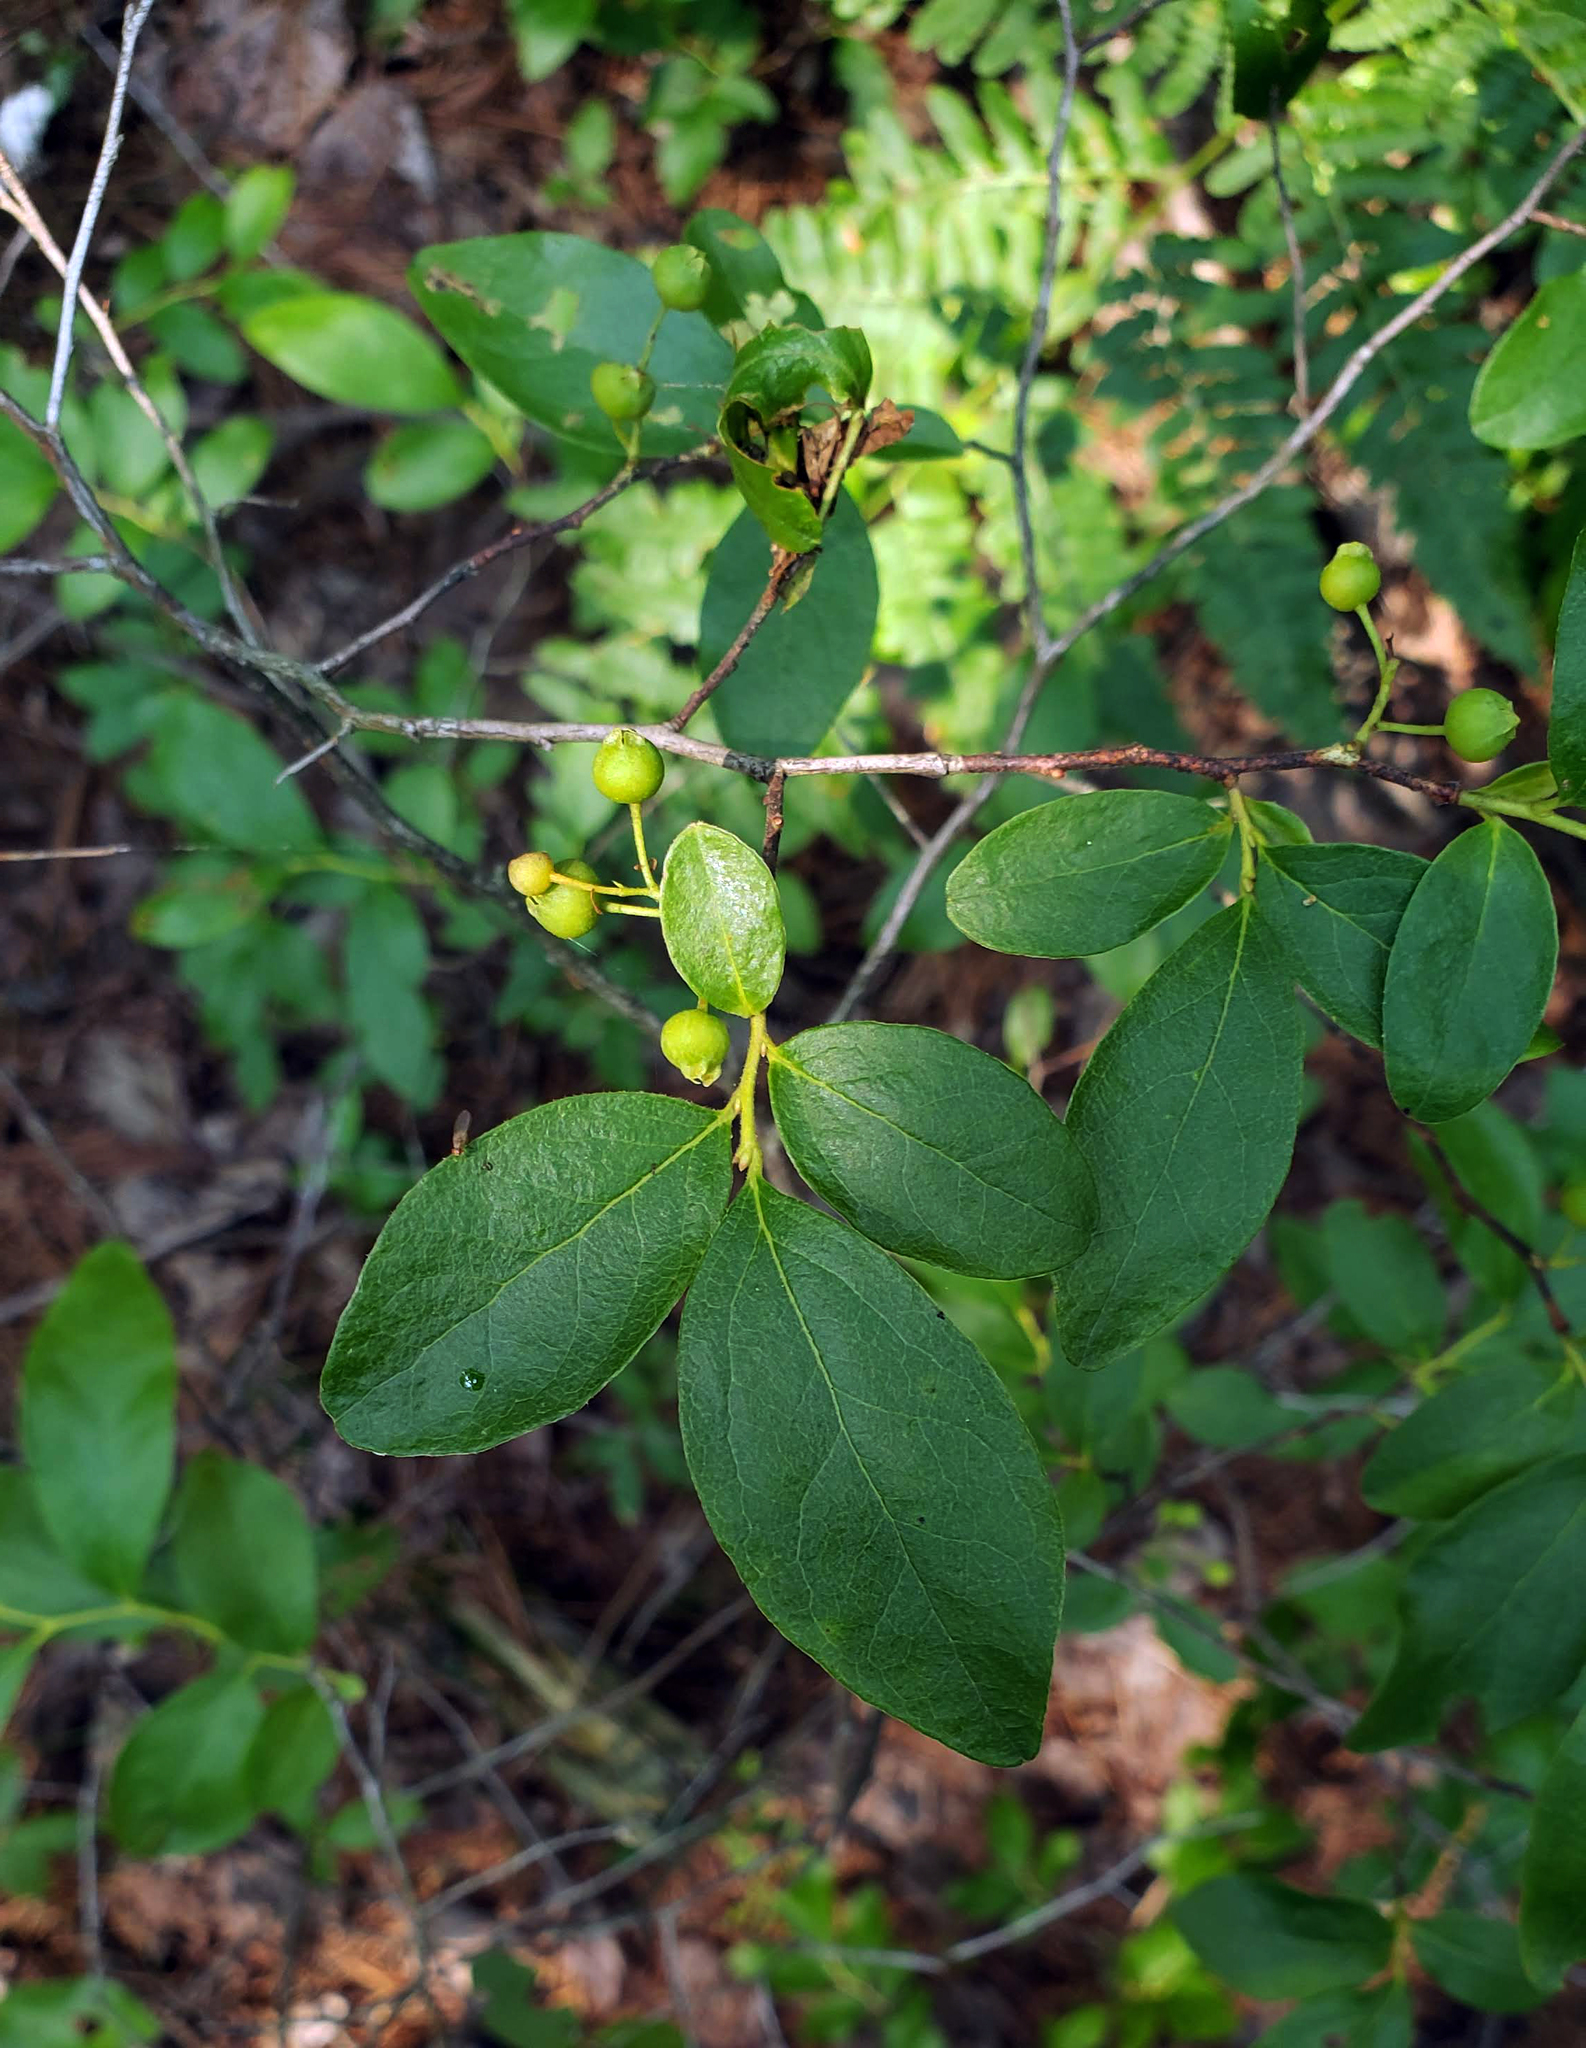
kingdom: Plantae
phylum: Tracheophyta
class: Magnoliopsida
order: Ericales
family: Ericaceae
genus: Gaylussacia
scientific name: Gaylussacia baccata
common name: Black huckleberry
